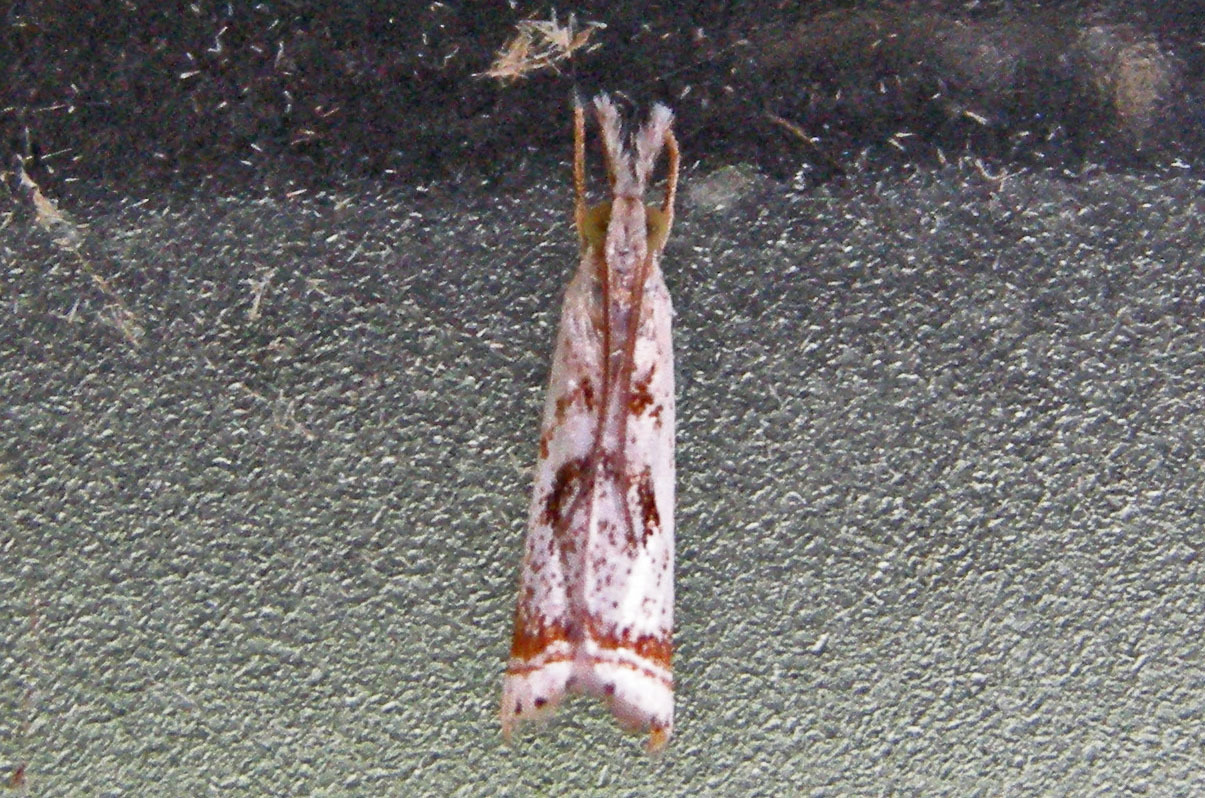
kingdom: Animalia
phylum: Arthropoda
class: Insecta
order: Lepidoptera
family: Crambidae
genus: Microcrambus
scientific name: Microcrambus elegans
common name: Elegant grass-veneer
